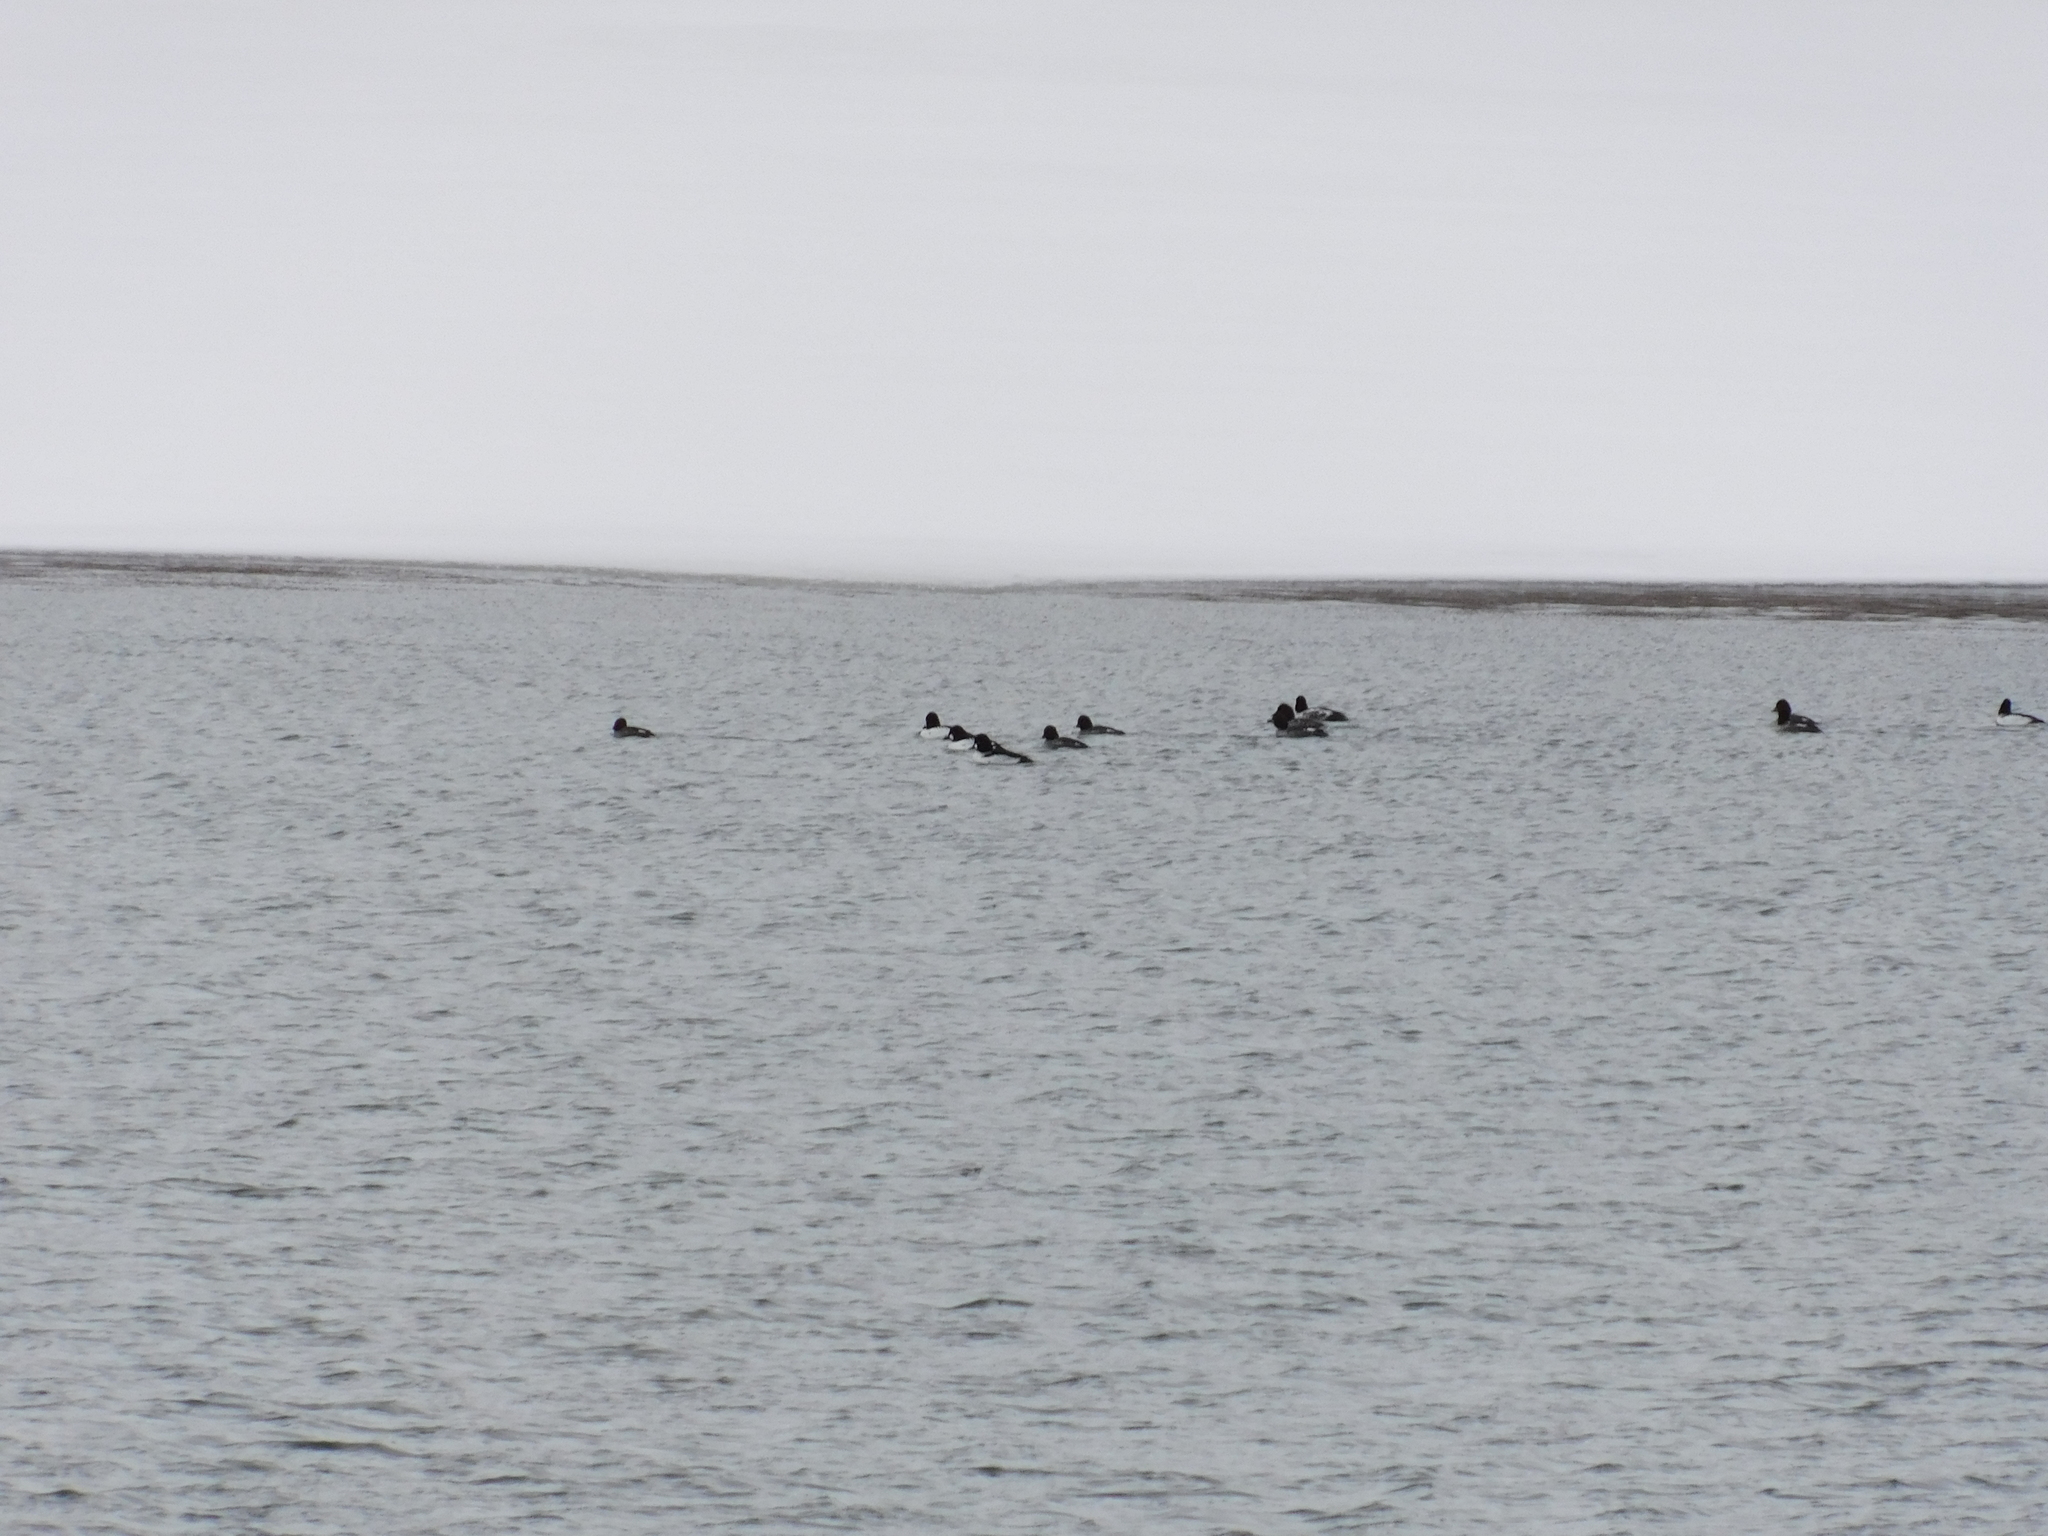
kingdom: Animalia
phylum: Chordata
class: Aves
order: Anseriformes
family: Anatidae
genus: Bucephala
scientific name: Bucephala clangula
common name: Common goldeneye
